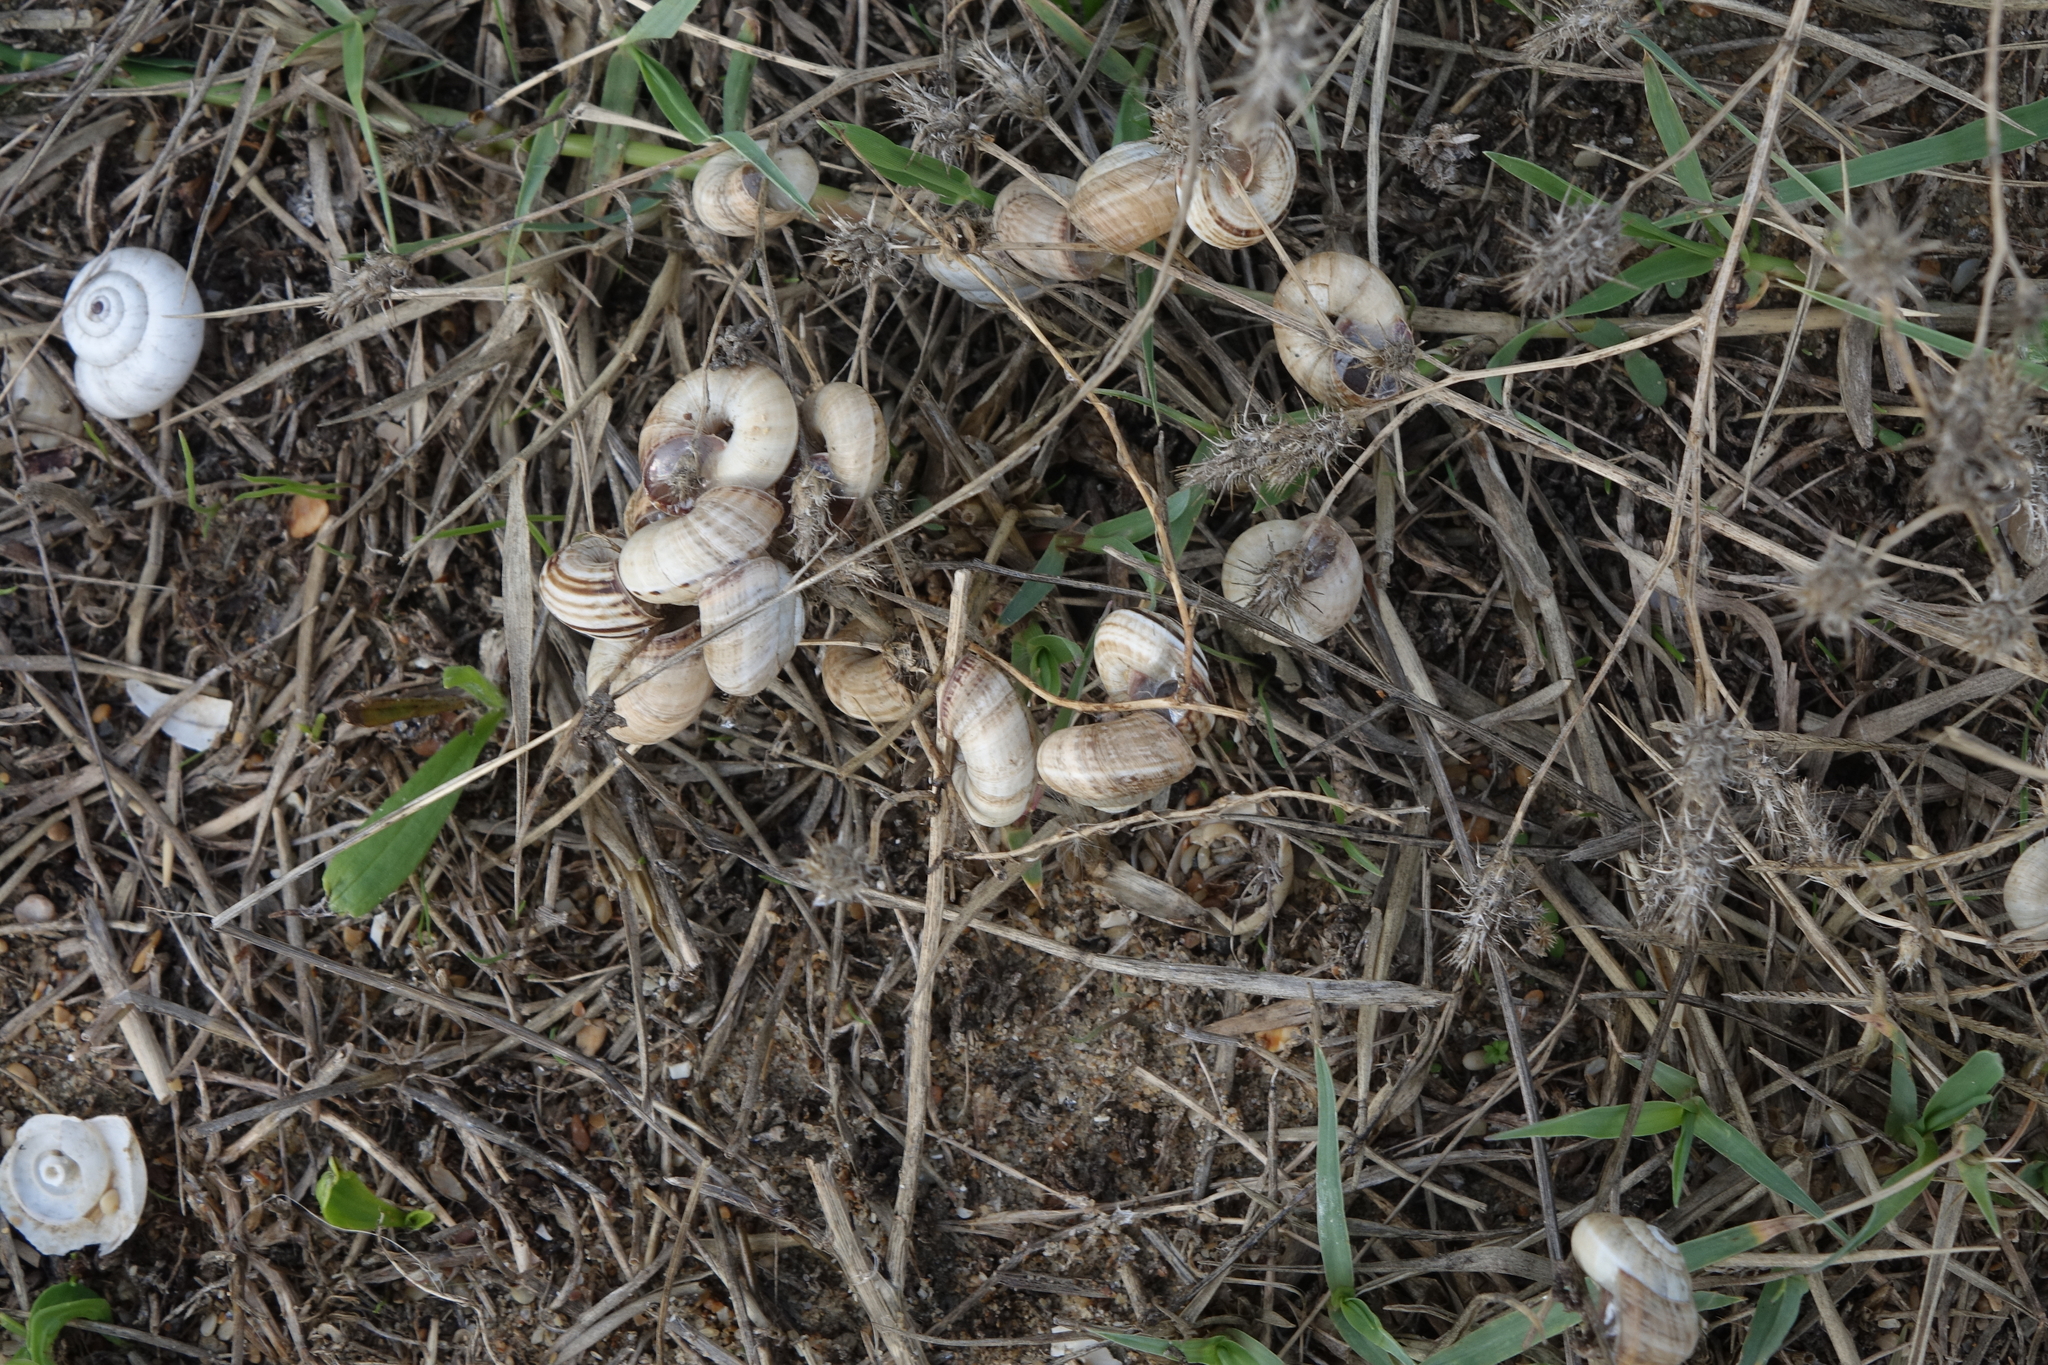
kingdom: Animalia
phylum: Mollusca
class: Gastropoda
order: Stylommatophora
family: Geomitridae
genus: Xeropicta
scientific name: Xeropicta derbentina
